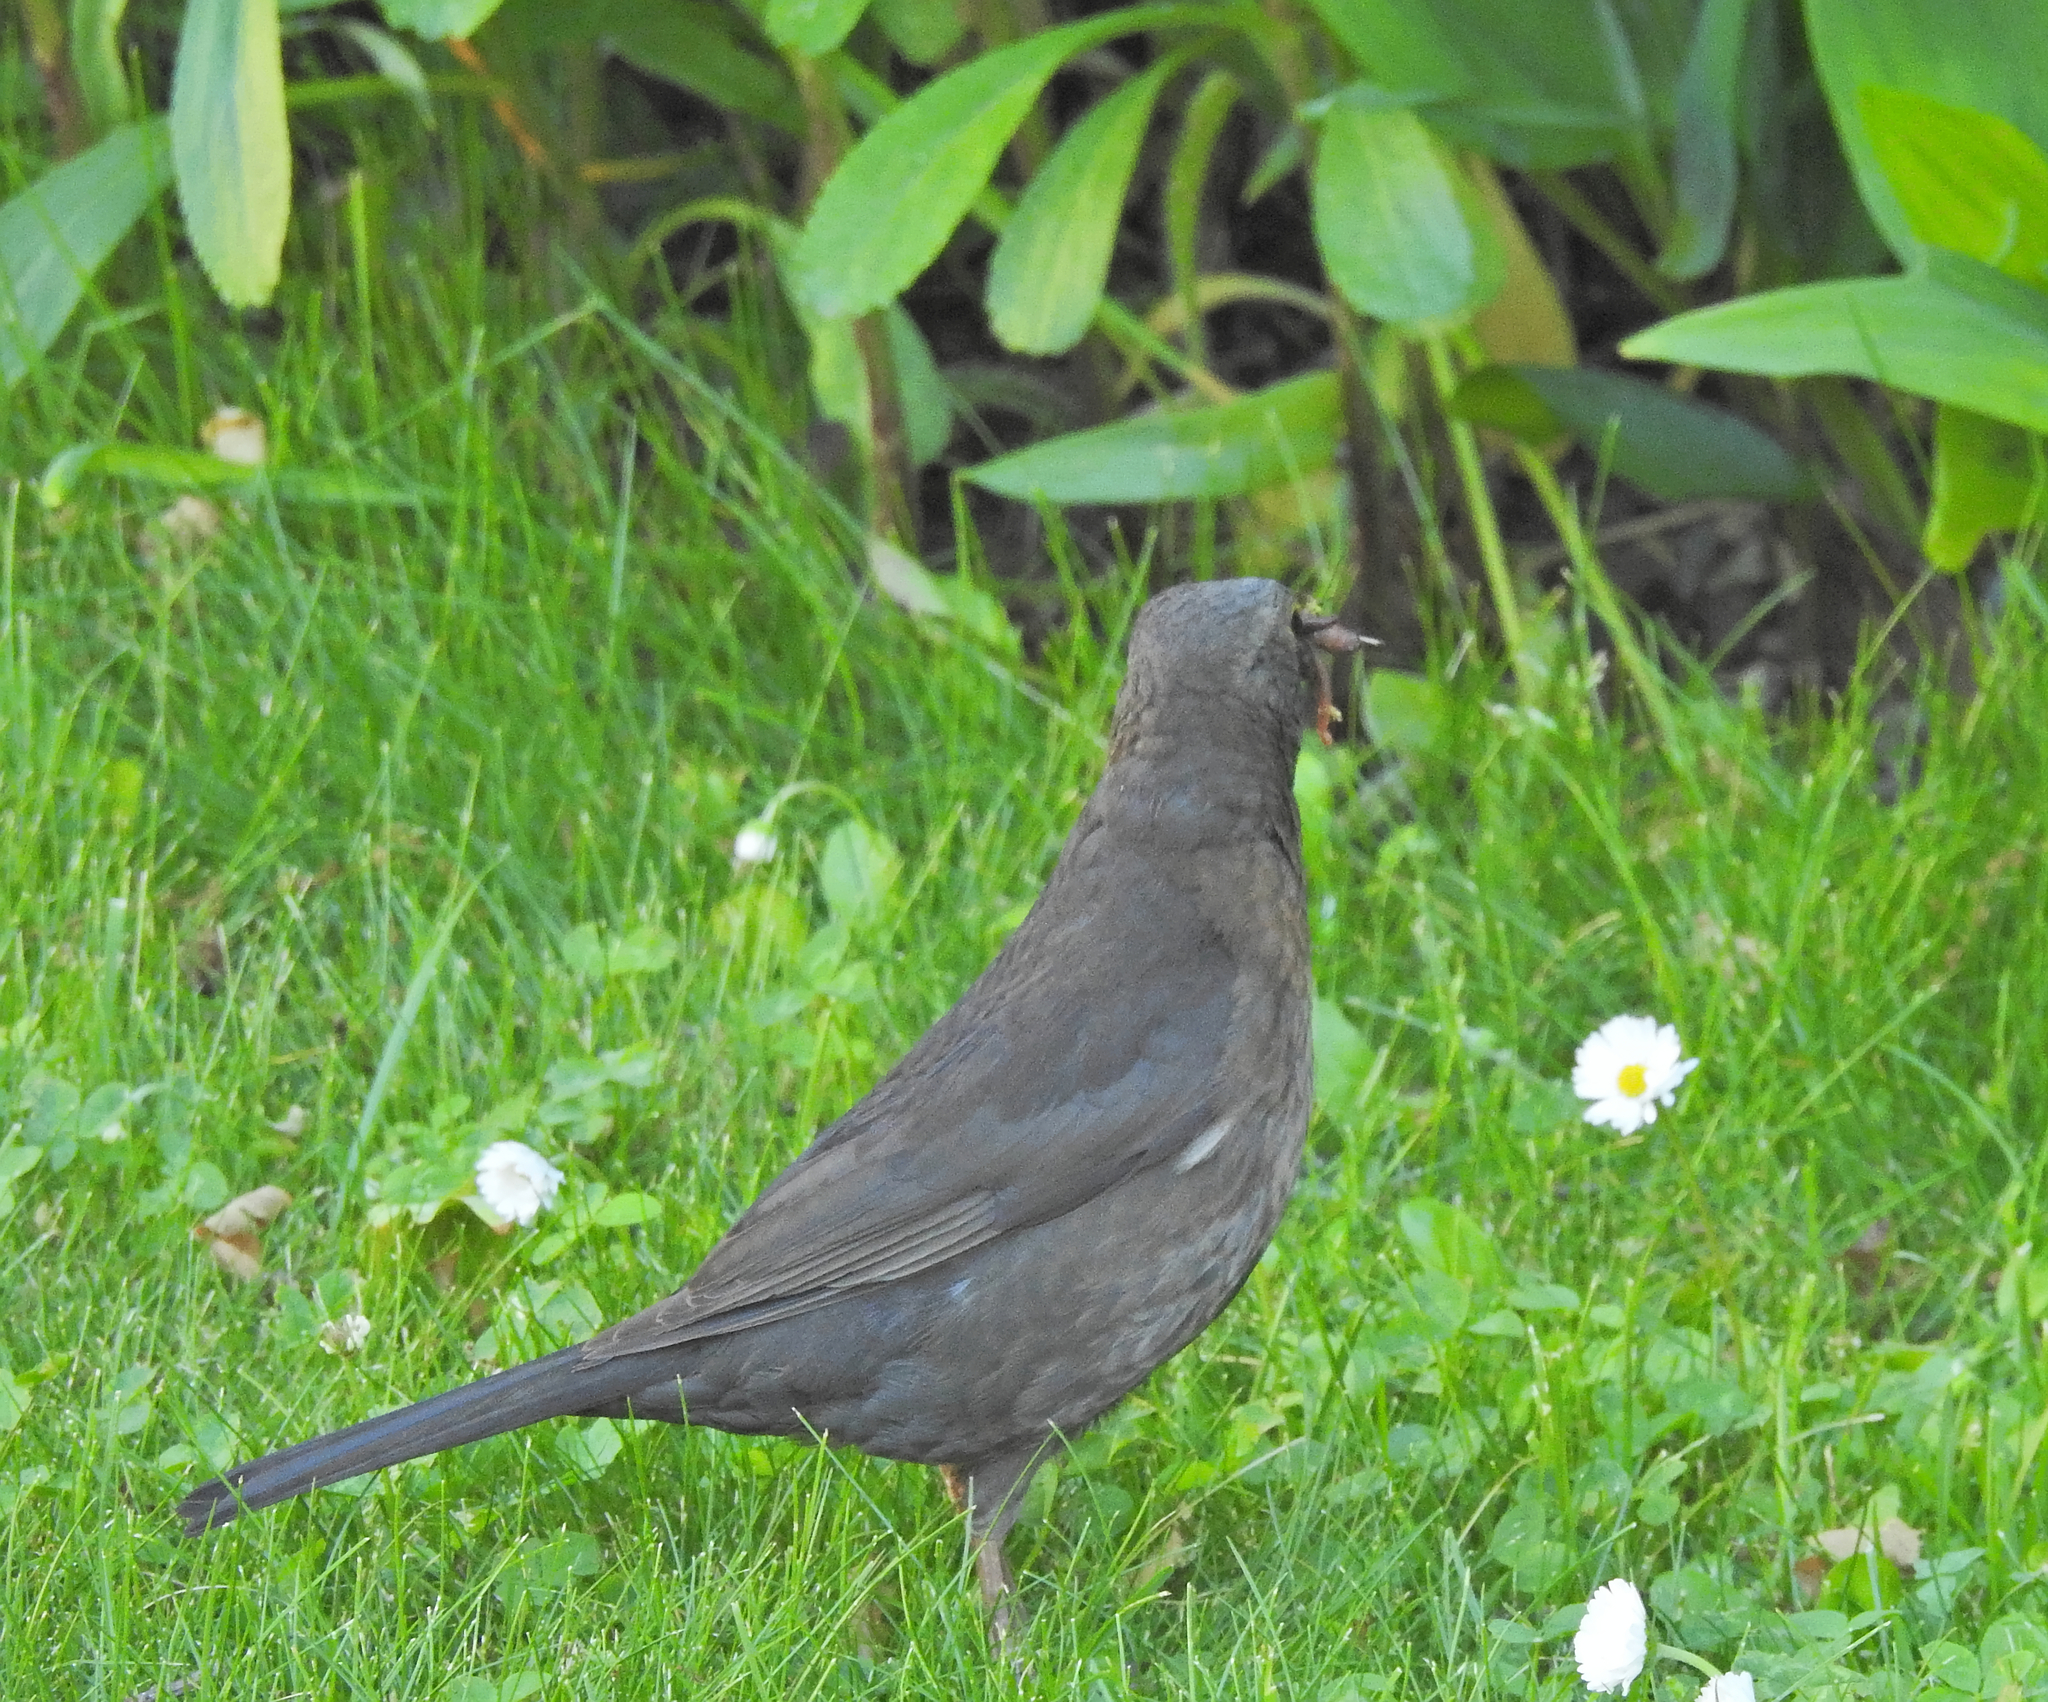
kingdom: Animalia
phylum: Chordata
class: Aves
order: Passeriformes
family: Turdidae
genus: Turdus
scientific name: Turdus merula
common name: Common blackbird
